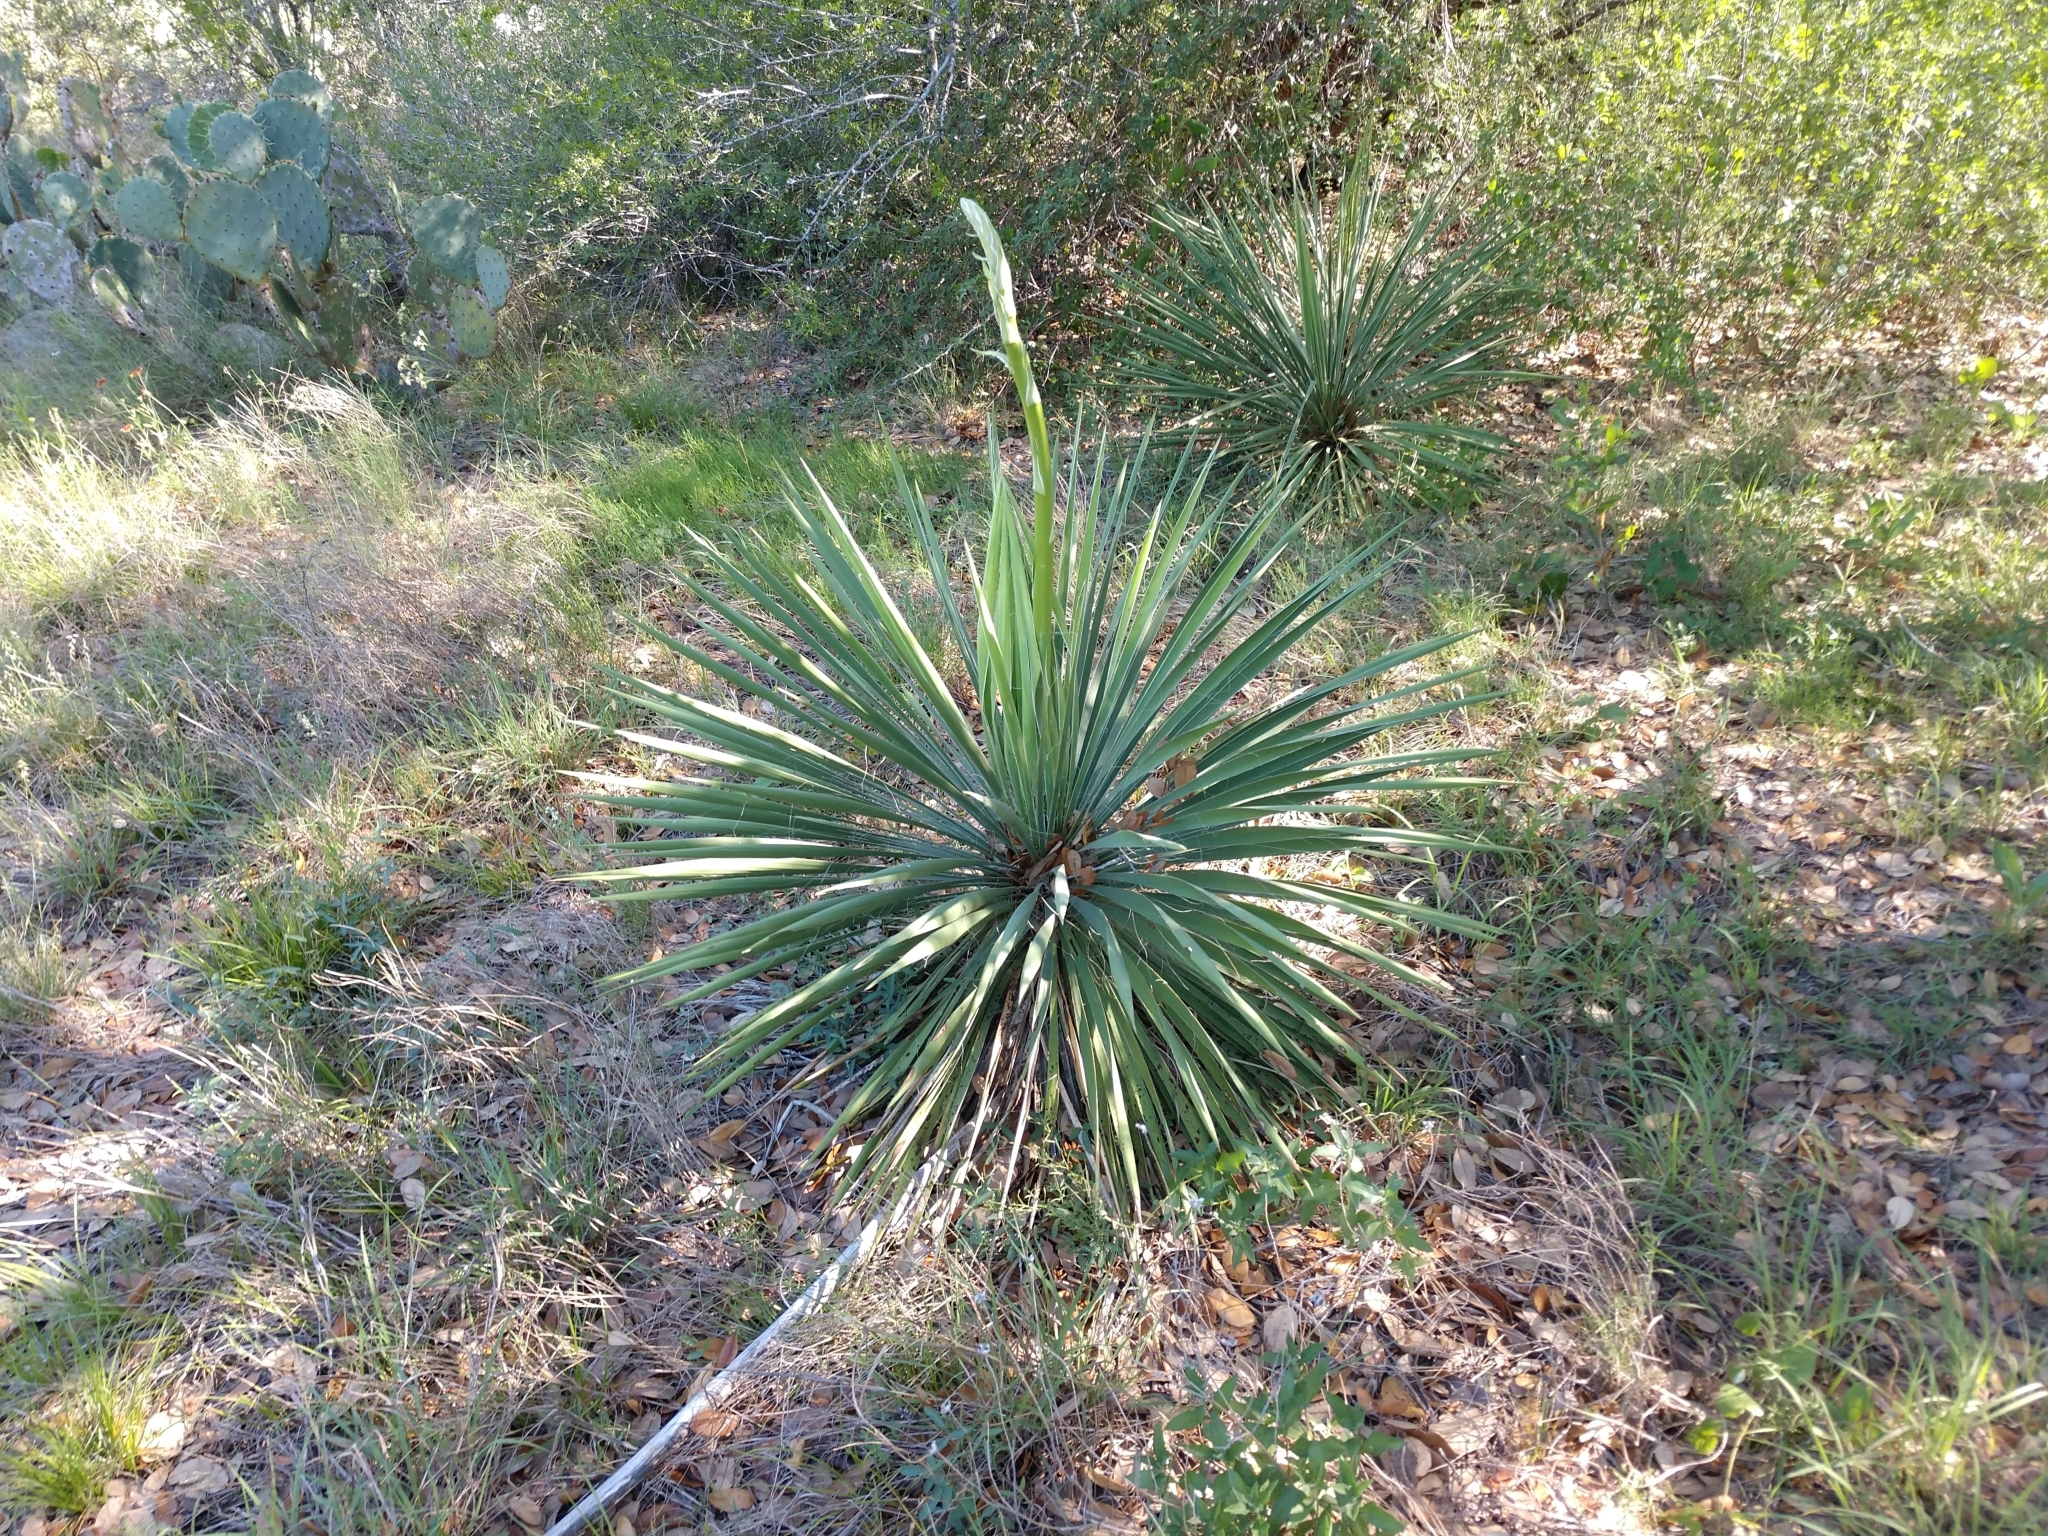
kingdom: Plantae
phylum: Tracheophyta
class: Liliopsida
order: Asparagales
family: Asparagaceae
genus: Yucca
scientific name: Yucca constricta
